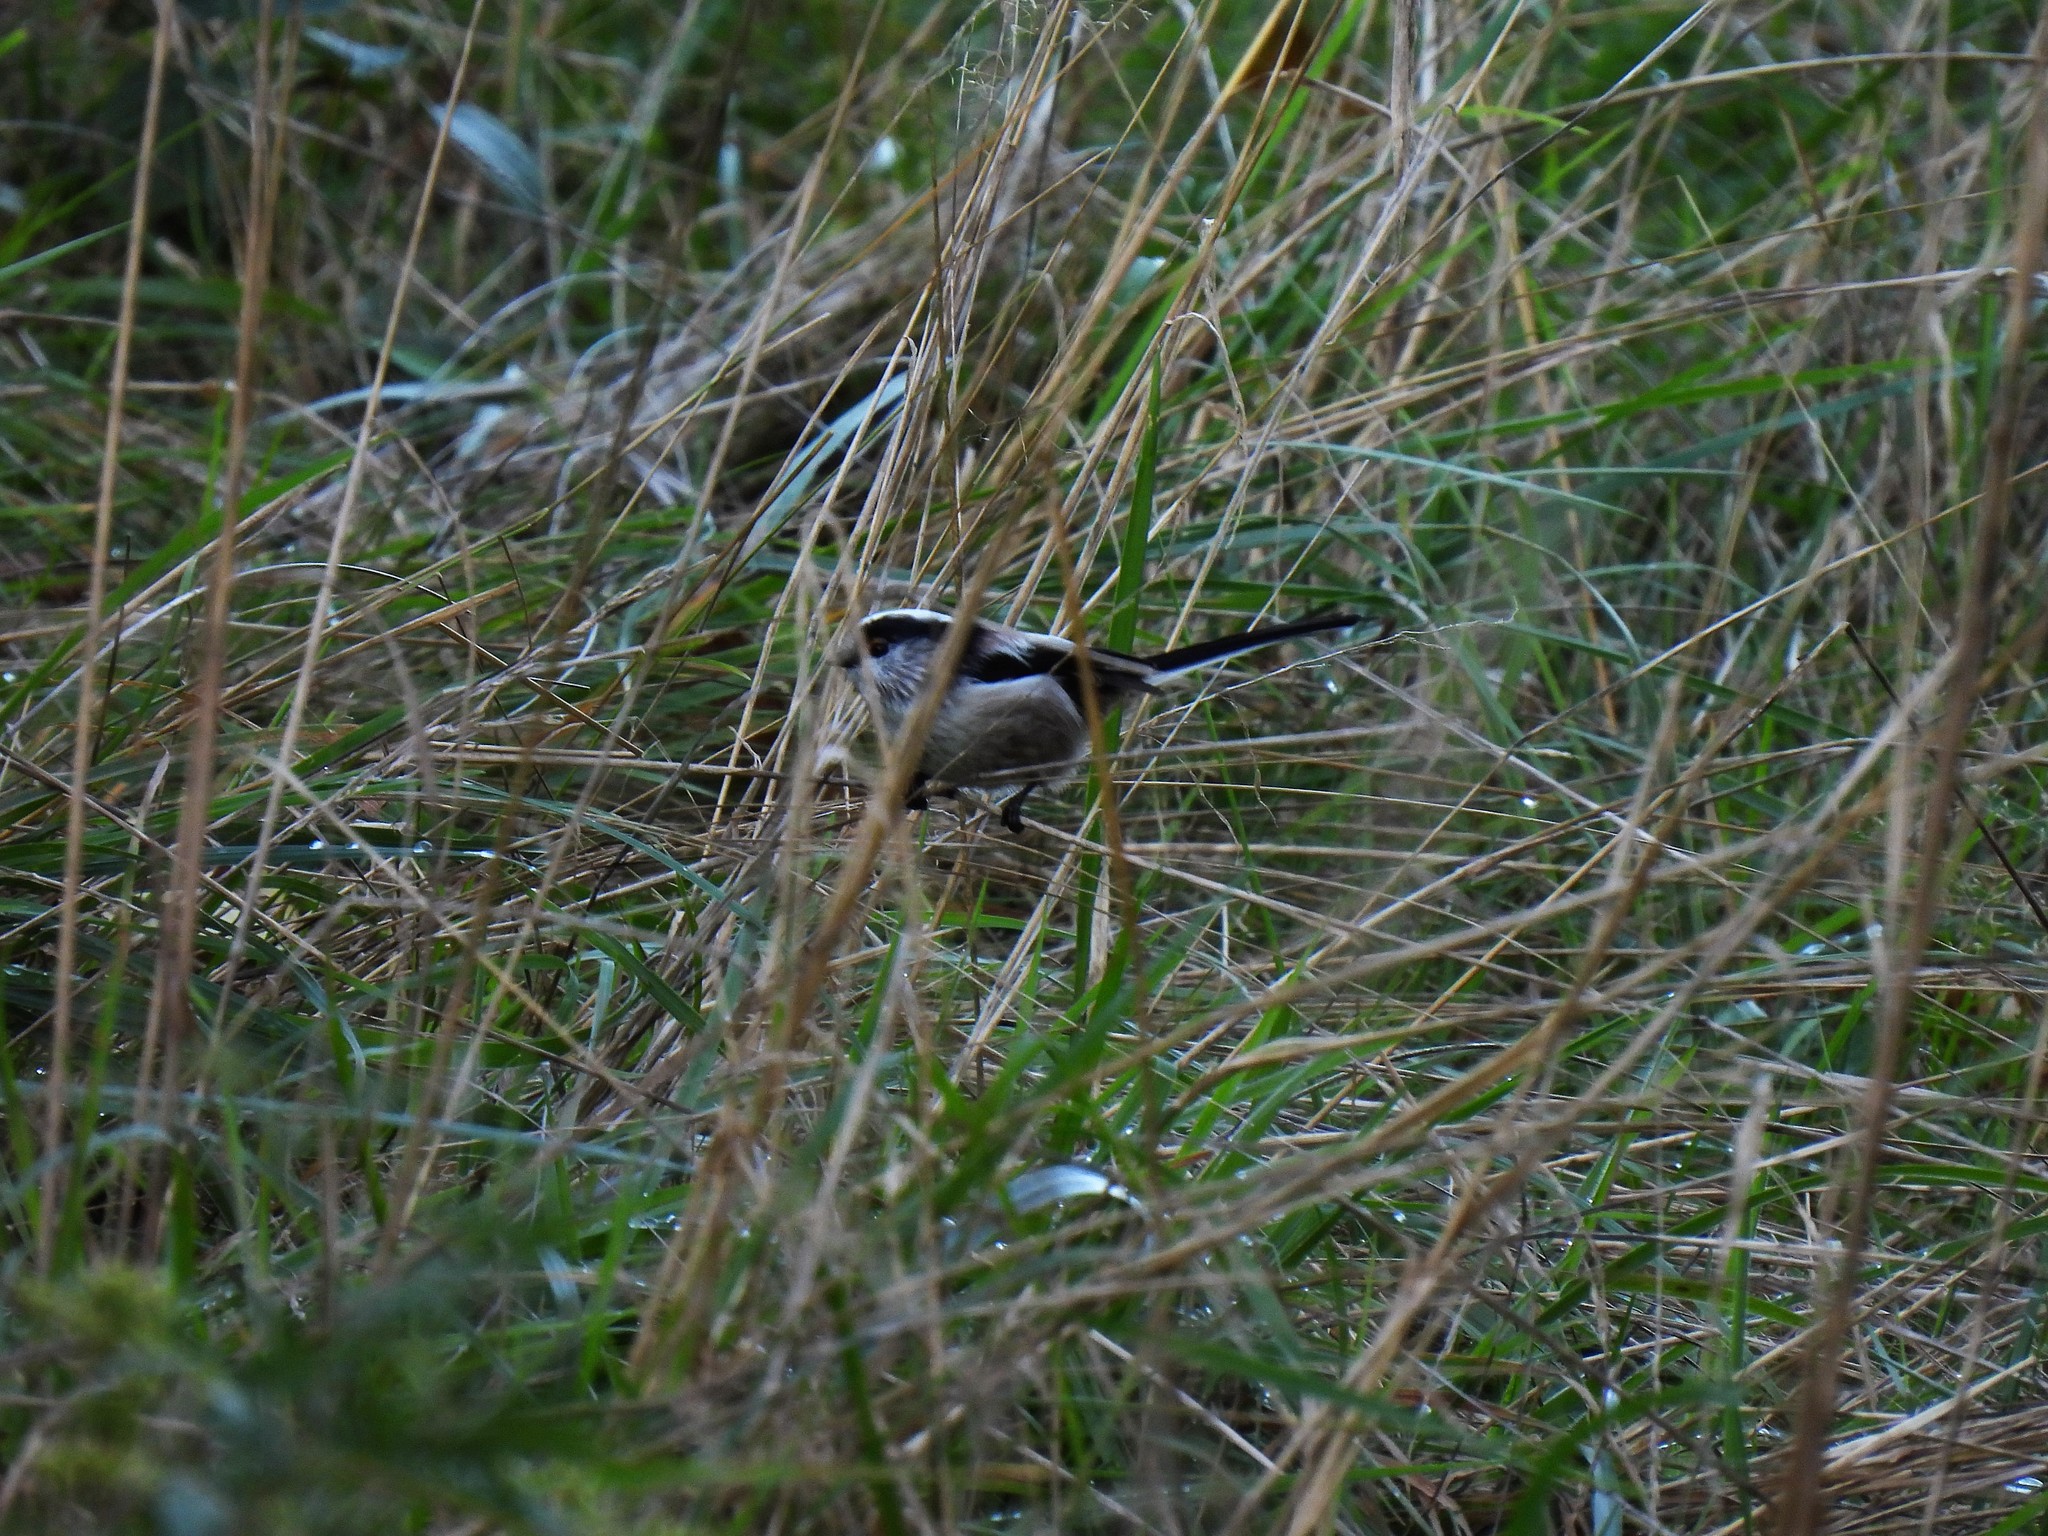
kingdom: Animalia
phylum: Chordata
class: Aves
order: Passeriformes
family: Aegithalidae
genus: Aegithalos
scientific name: Aegithalos caudatus
